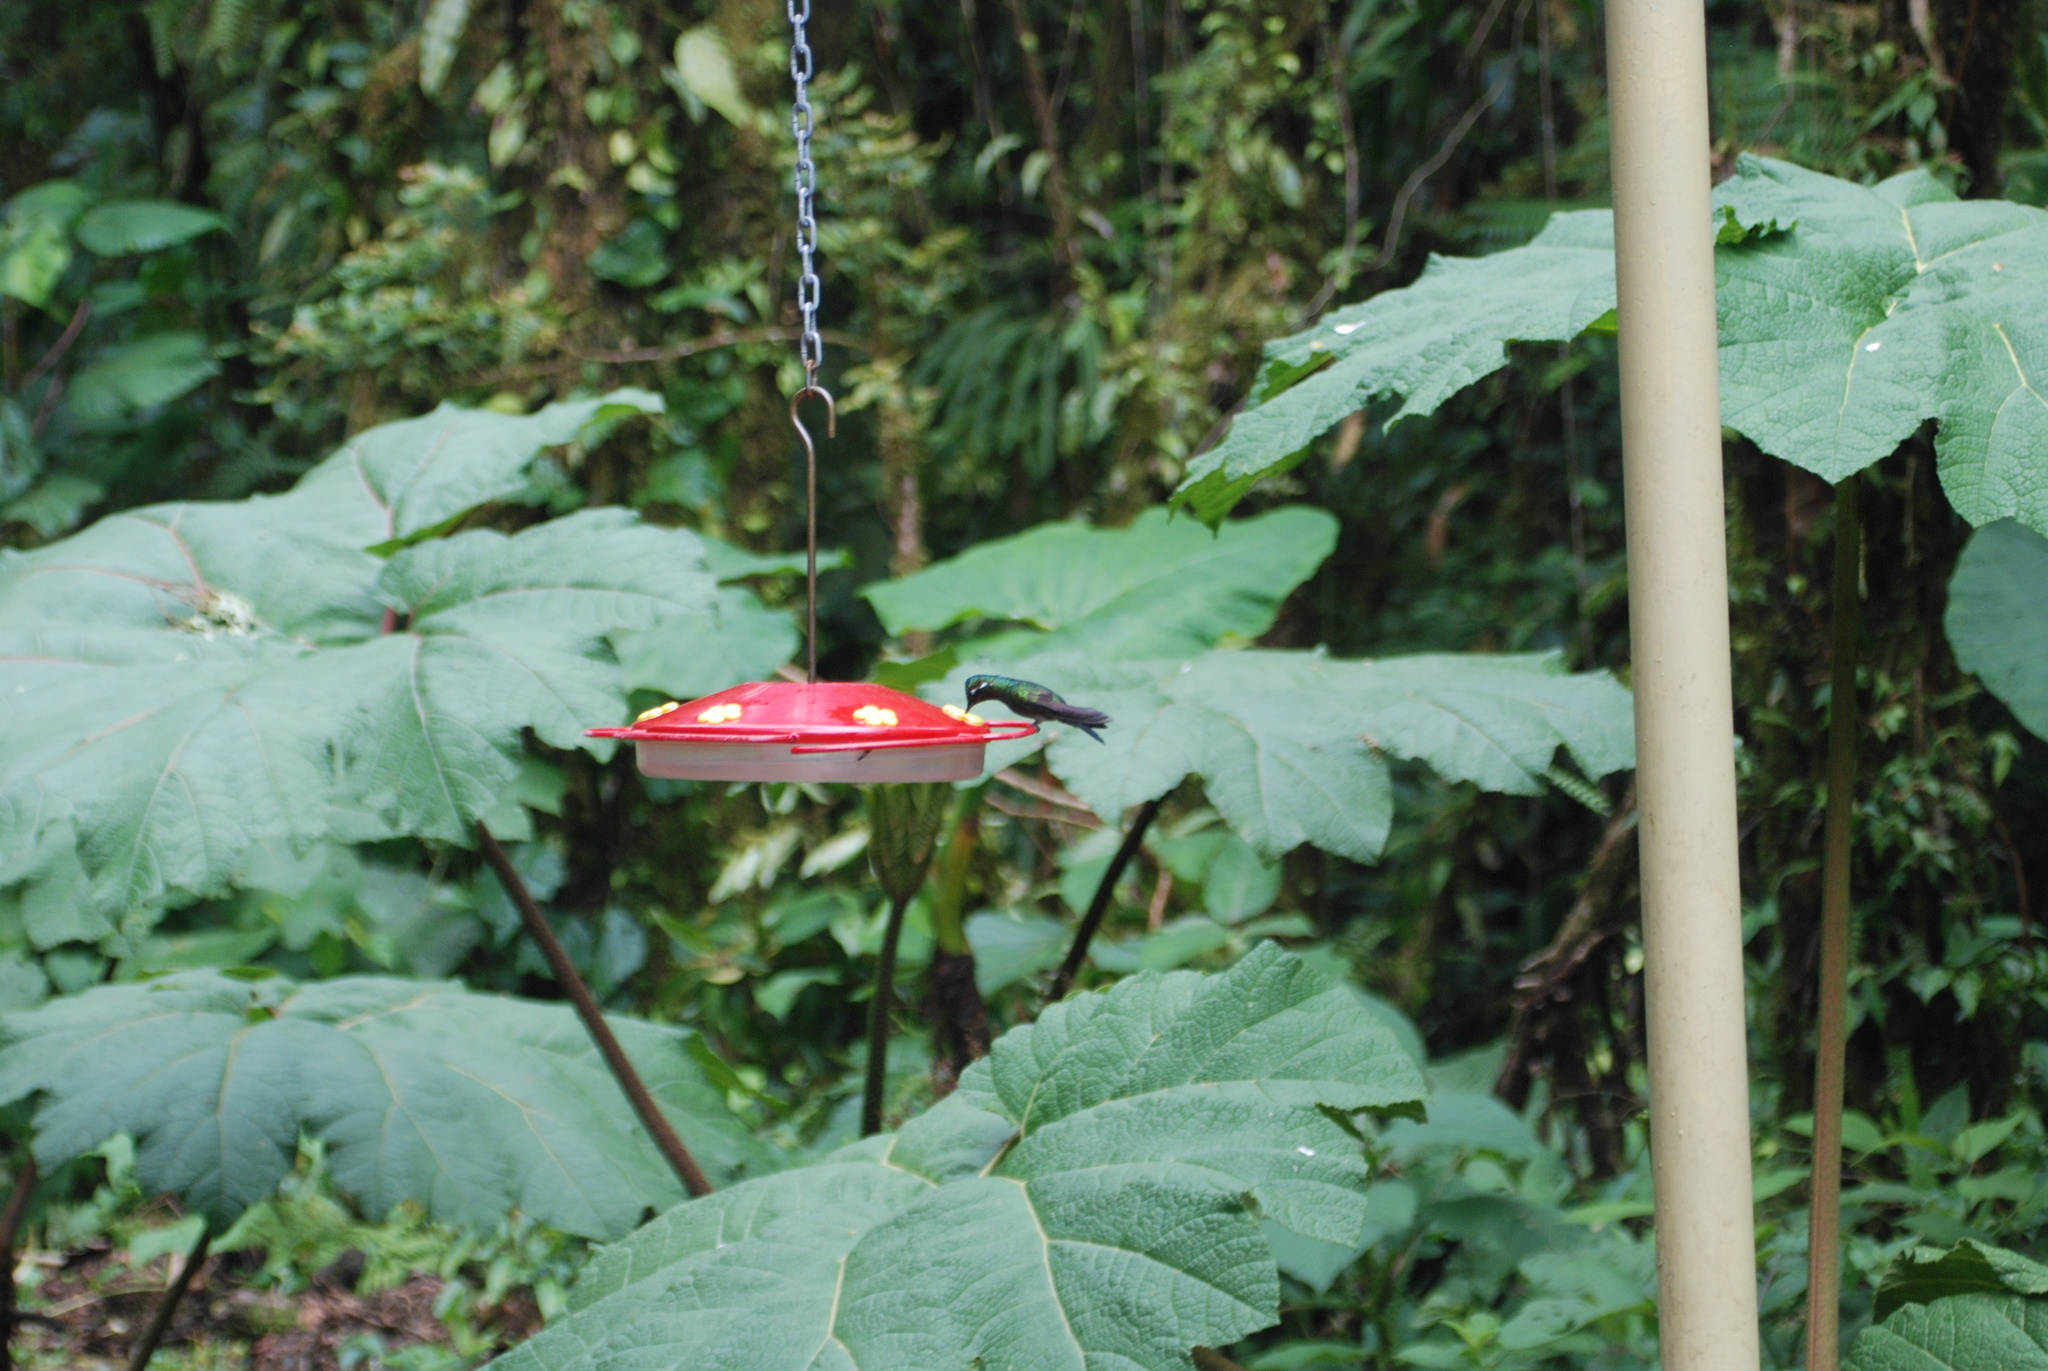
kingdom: Animalia
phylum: Chordata
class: Aves
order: Apodiformes
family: Trochilidae
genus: Lampornis
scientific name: Lampornis calolaemus
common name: Purple-throated mountain-gem
